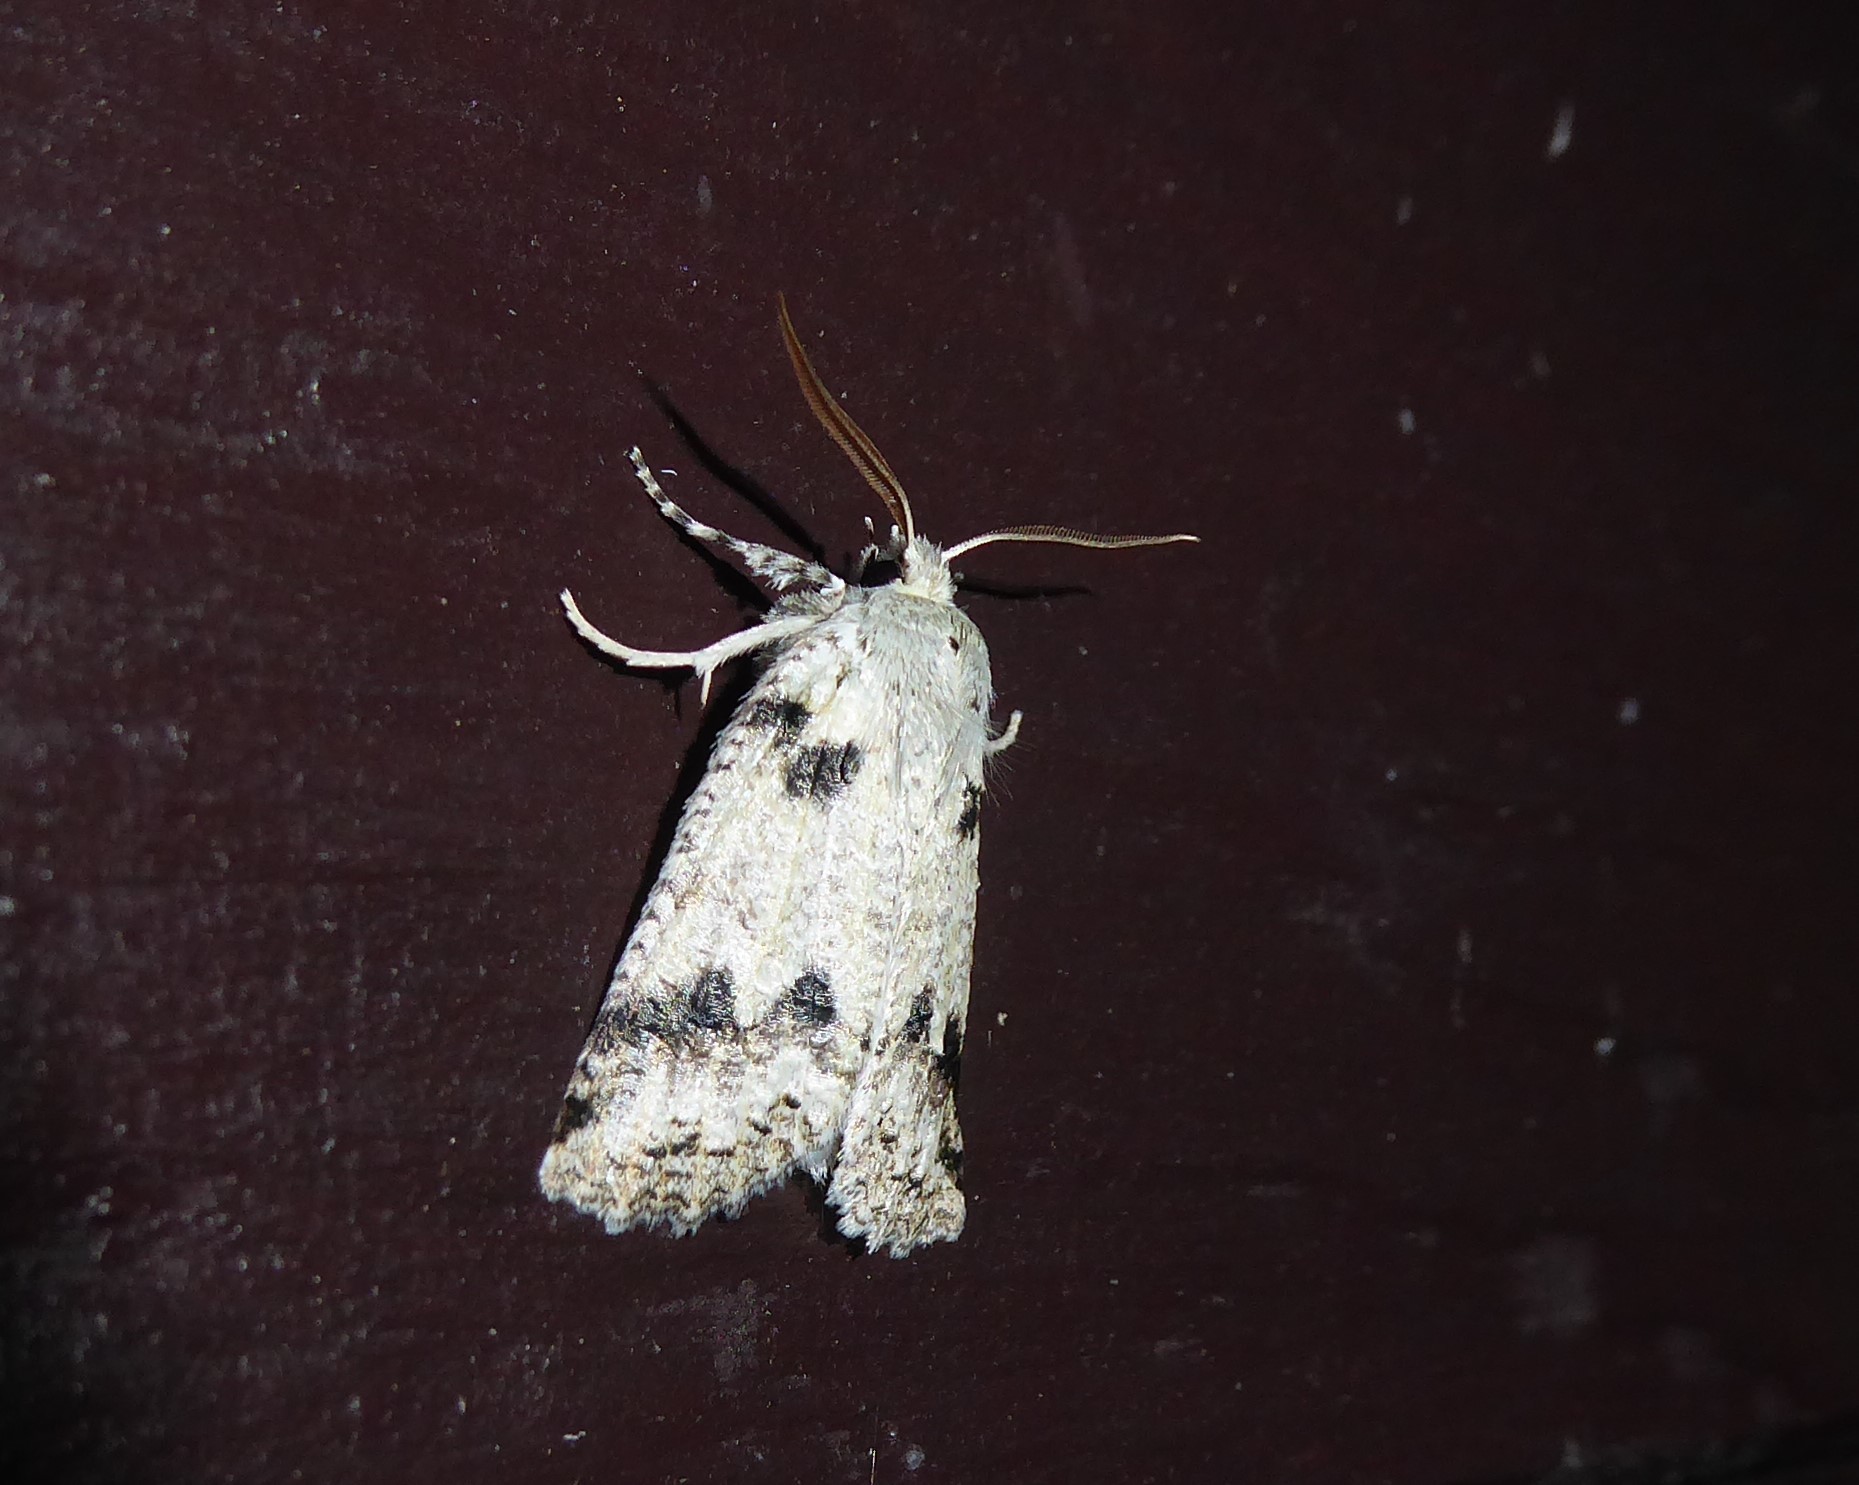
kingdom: Animalia
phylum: Arthropoda
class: Insecta
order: Lepidoptera
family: Geometridae
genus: Declana
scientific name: Declana floccosa
